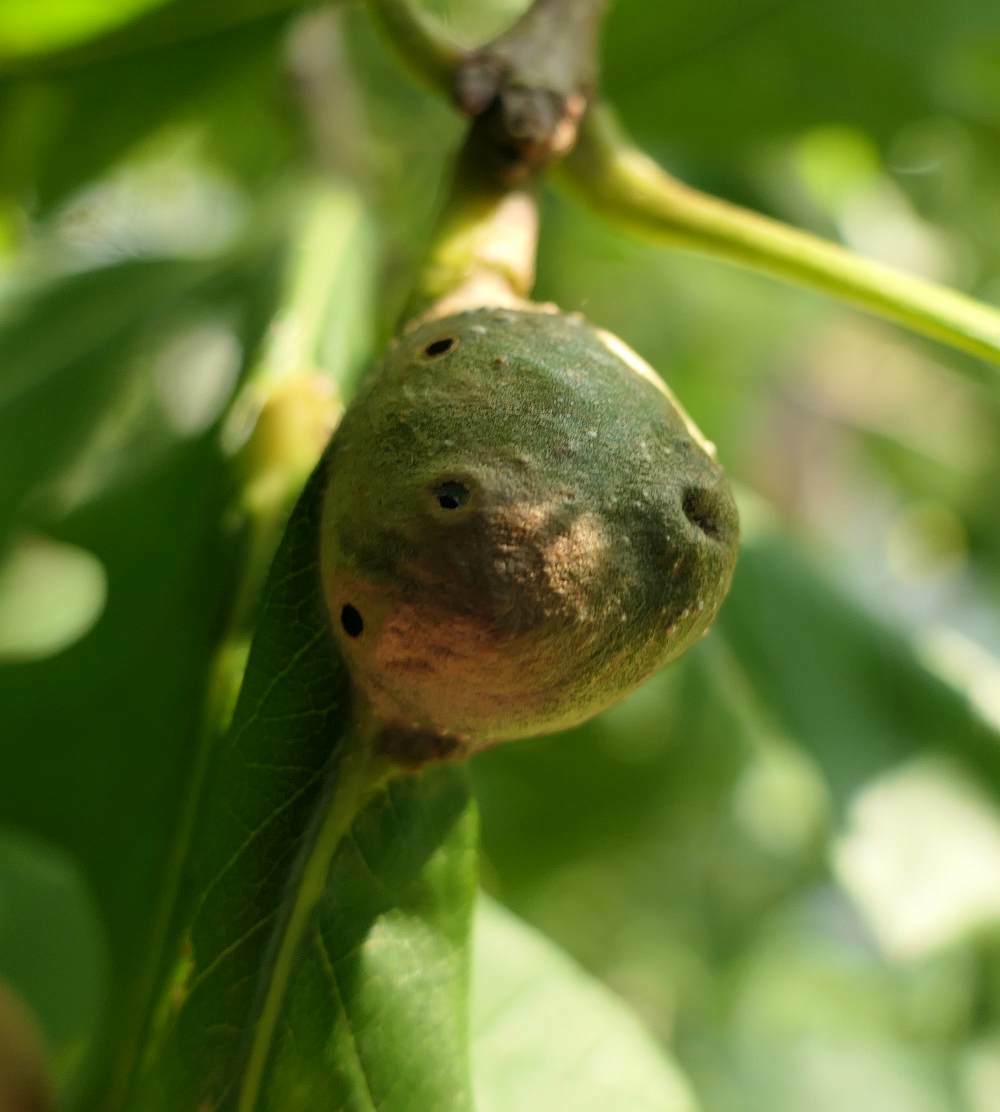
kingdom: Animalia
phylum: Arthropoda
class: Insecta
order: Hymenoptera
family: Cynipidae
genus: Andricus
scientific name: Andricus
